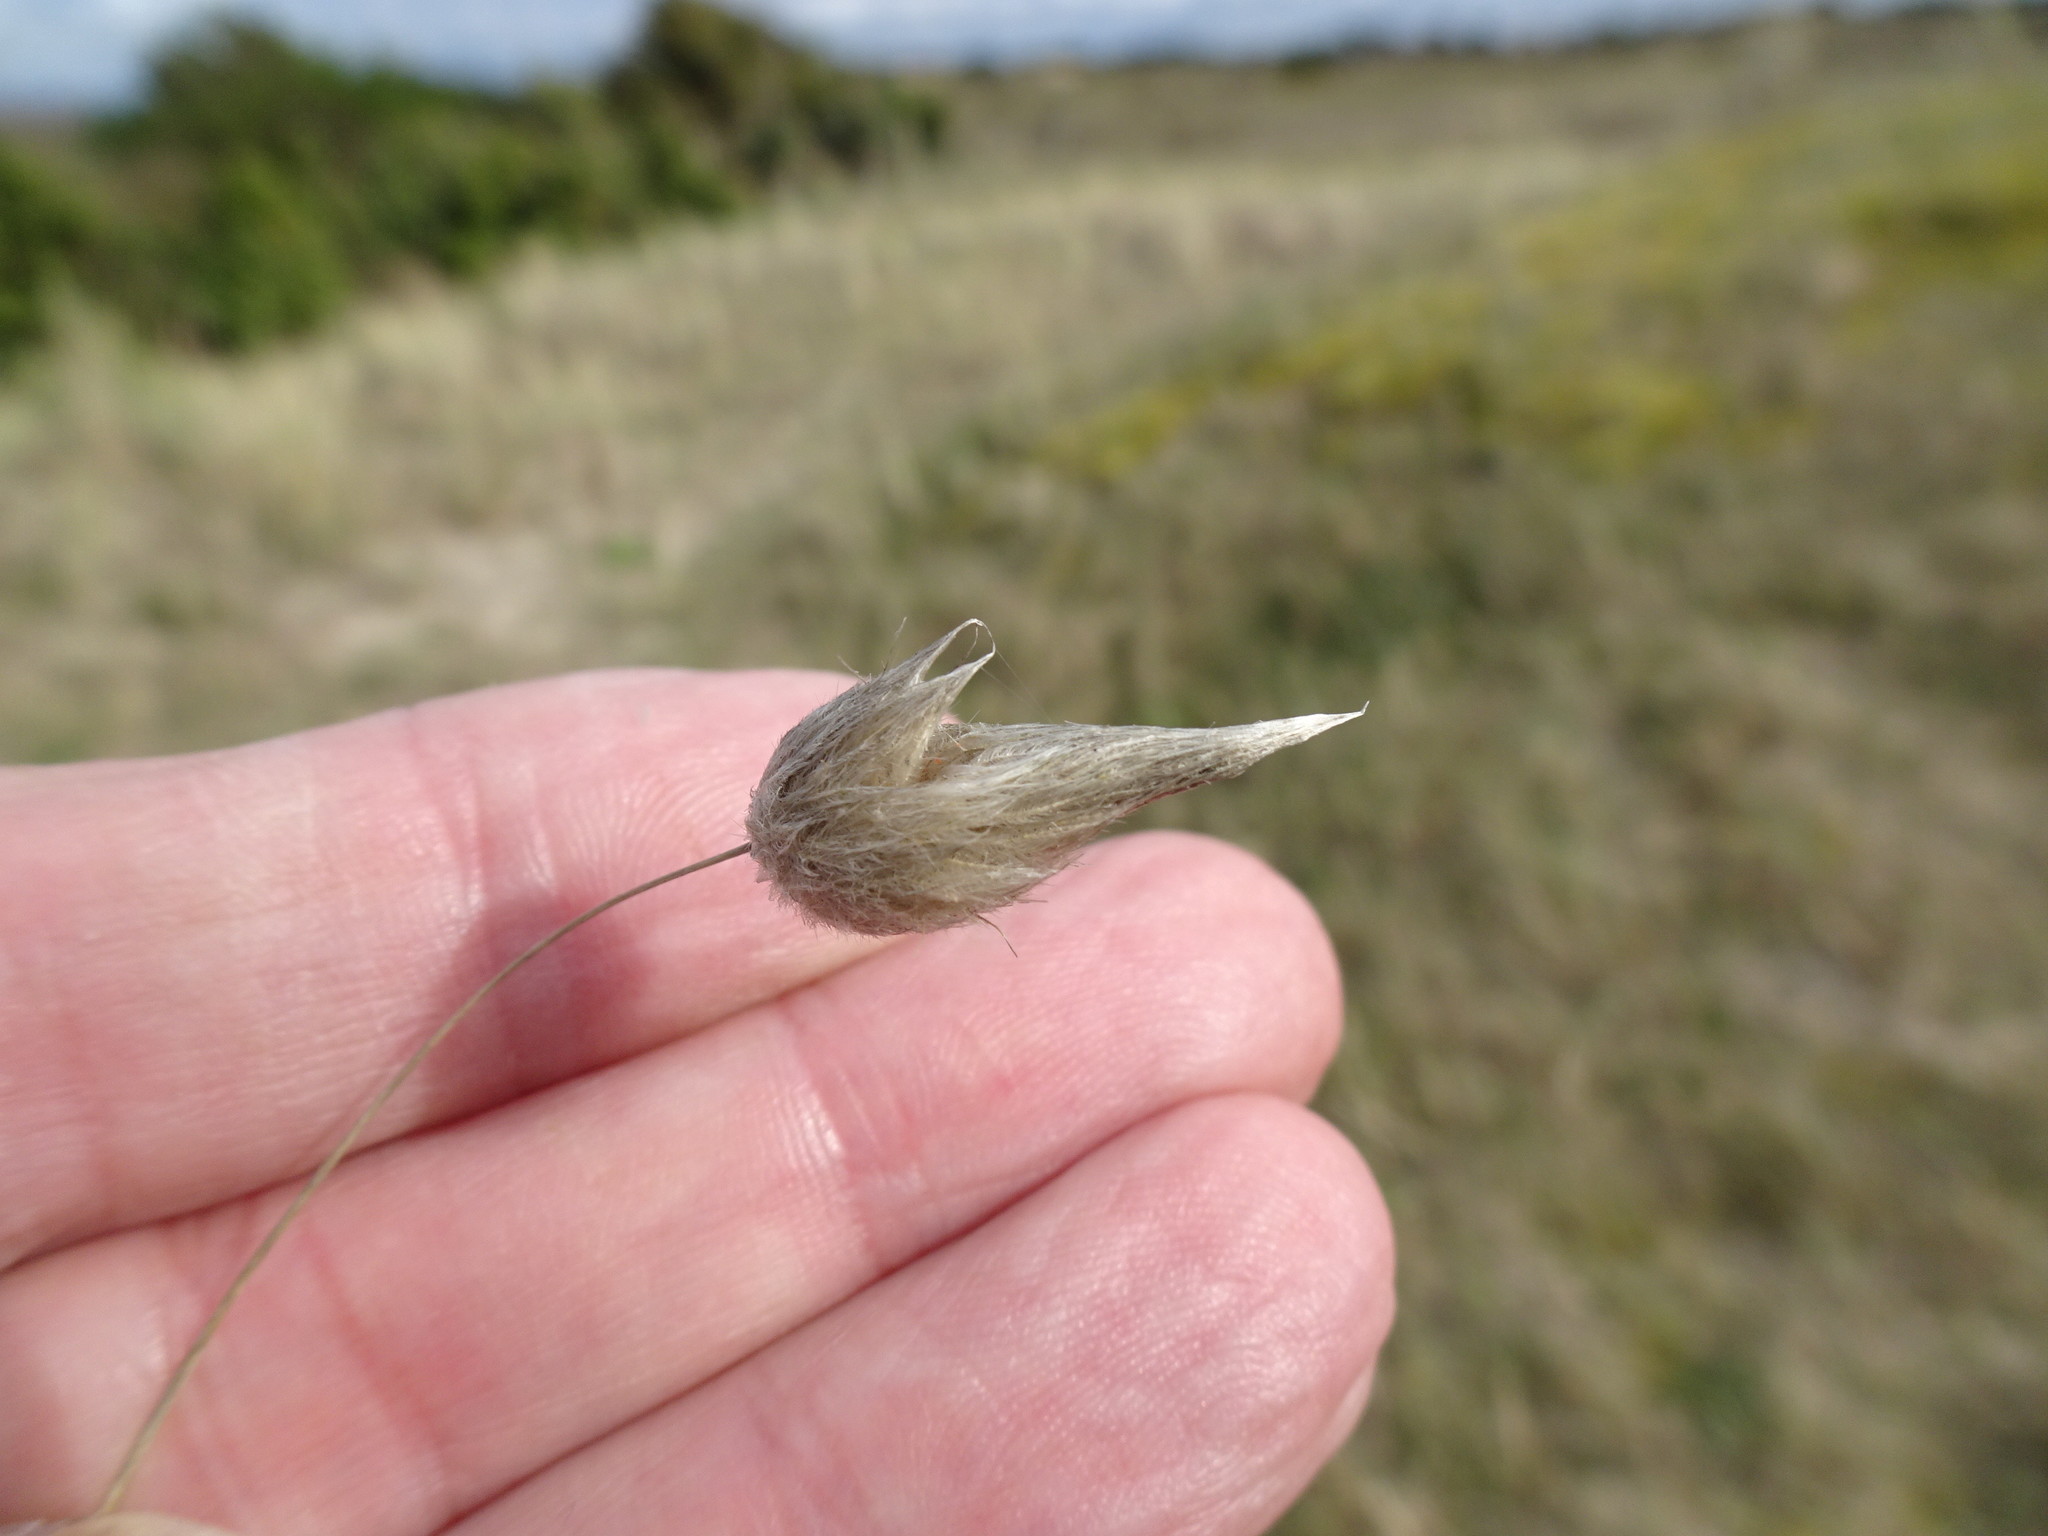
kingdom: Plantae
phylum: Tracheophyta
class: Liliopsida
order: Poales
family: Poaceae
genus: Lagurus
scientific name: Lagurus ovatus
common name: Hare's-tail
